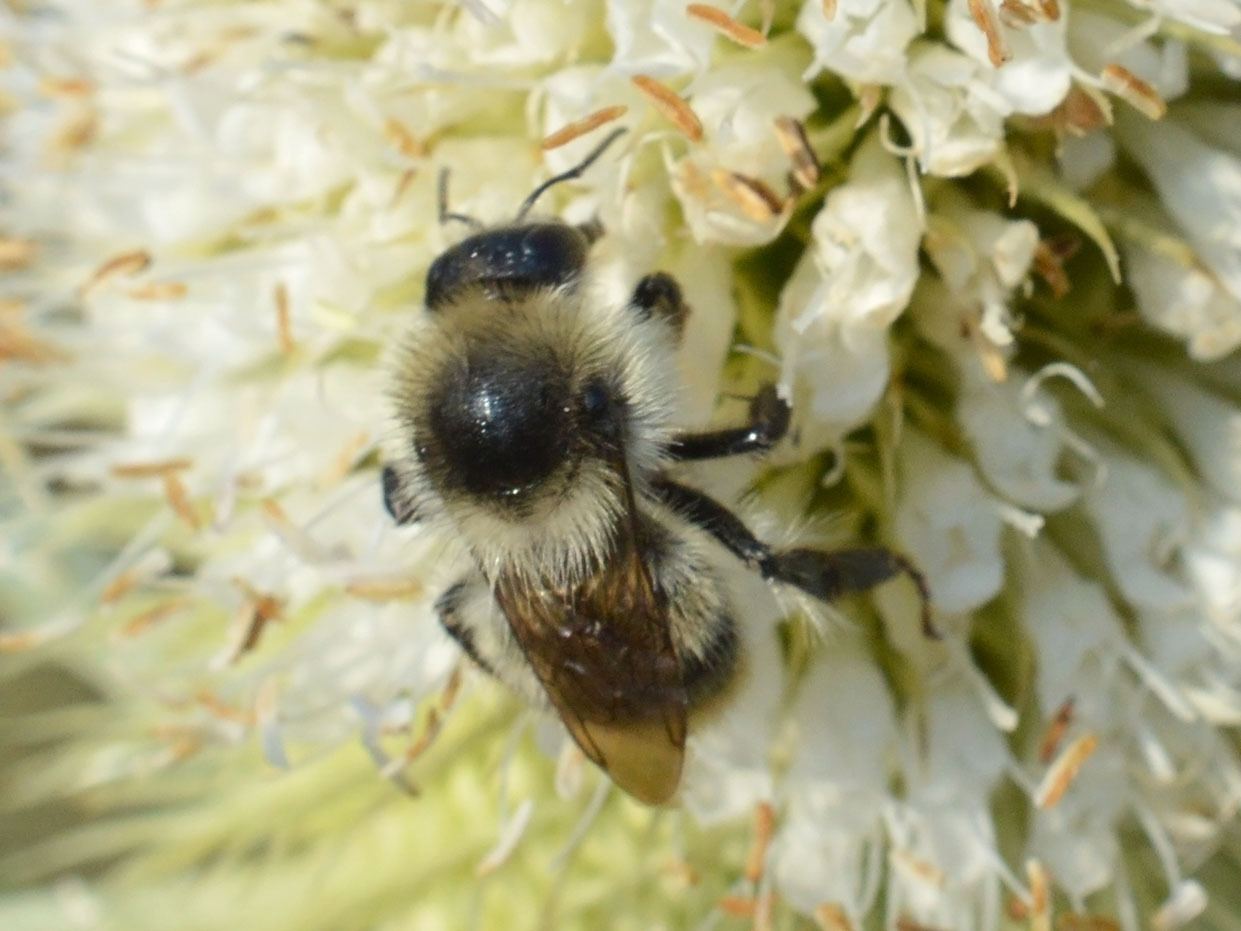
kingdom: Animalia
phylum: Arthropoda
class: Insecta
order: Hymenoptera
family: Apidae
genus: Bombus
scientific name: Bombus sylvarum
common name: Shrill carder bee
